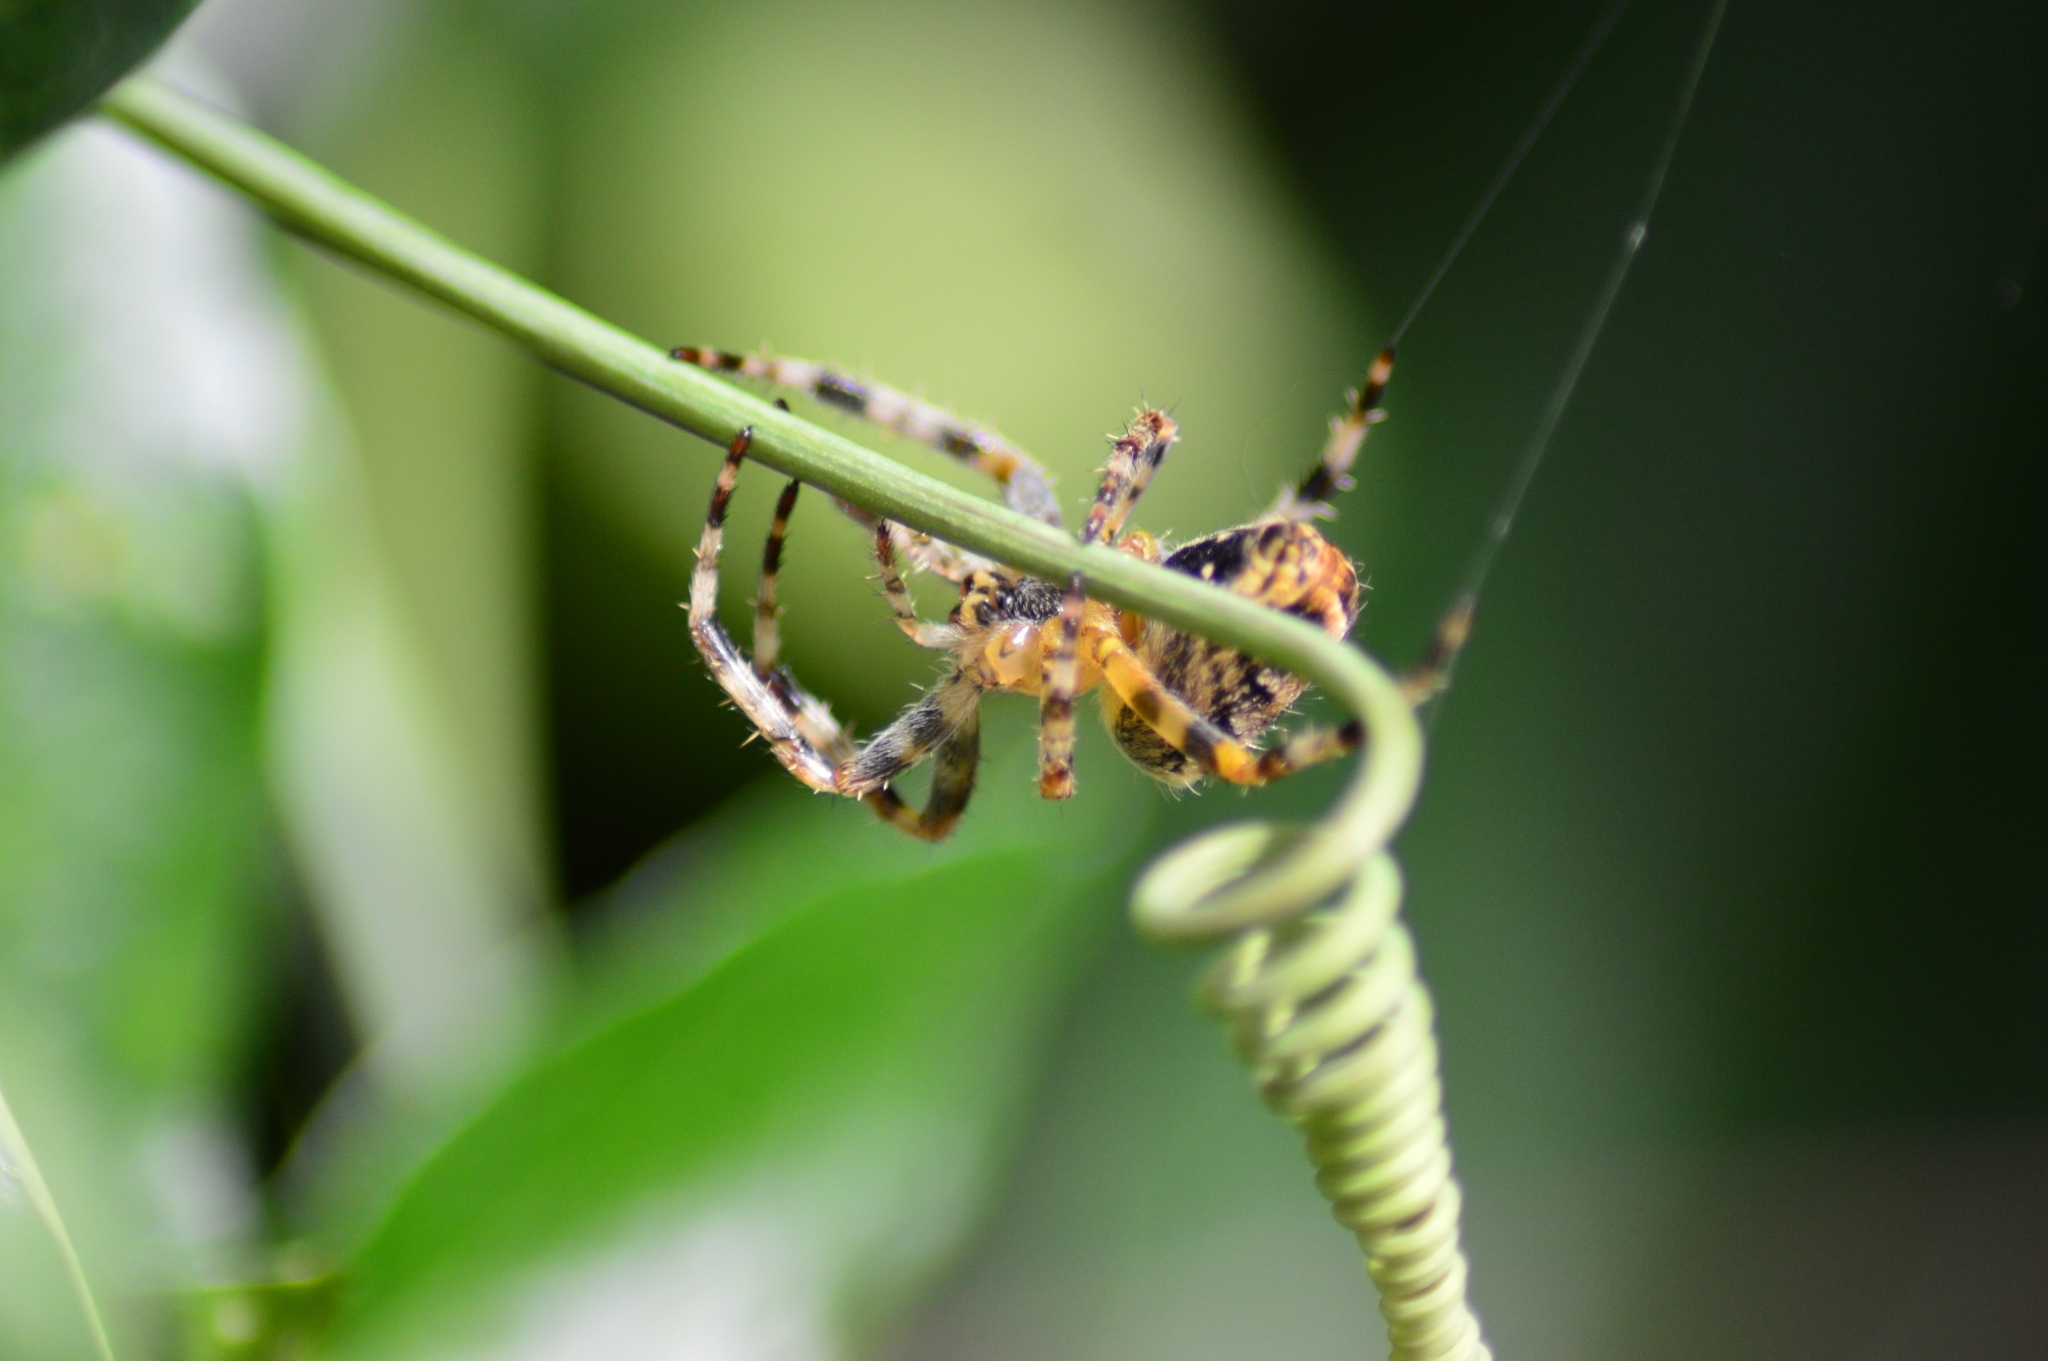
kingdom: Animalia
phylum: Arthropoda
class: Arachnida
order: Araneae
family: Araneidae
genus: Araneus
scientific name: Araneus diadematus
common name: Cross orbweaver
